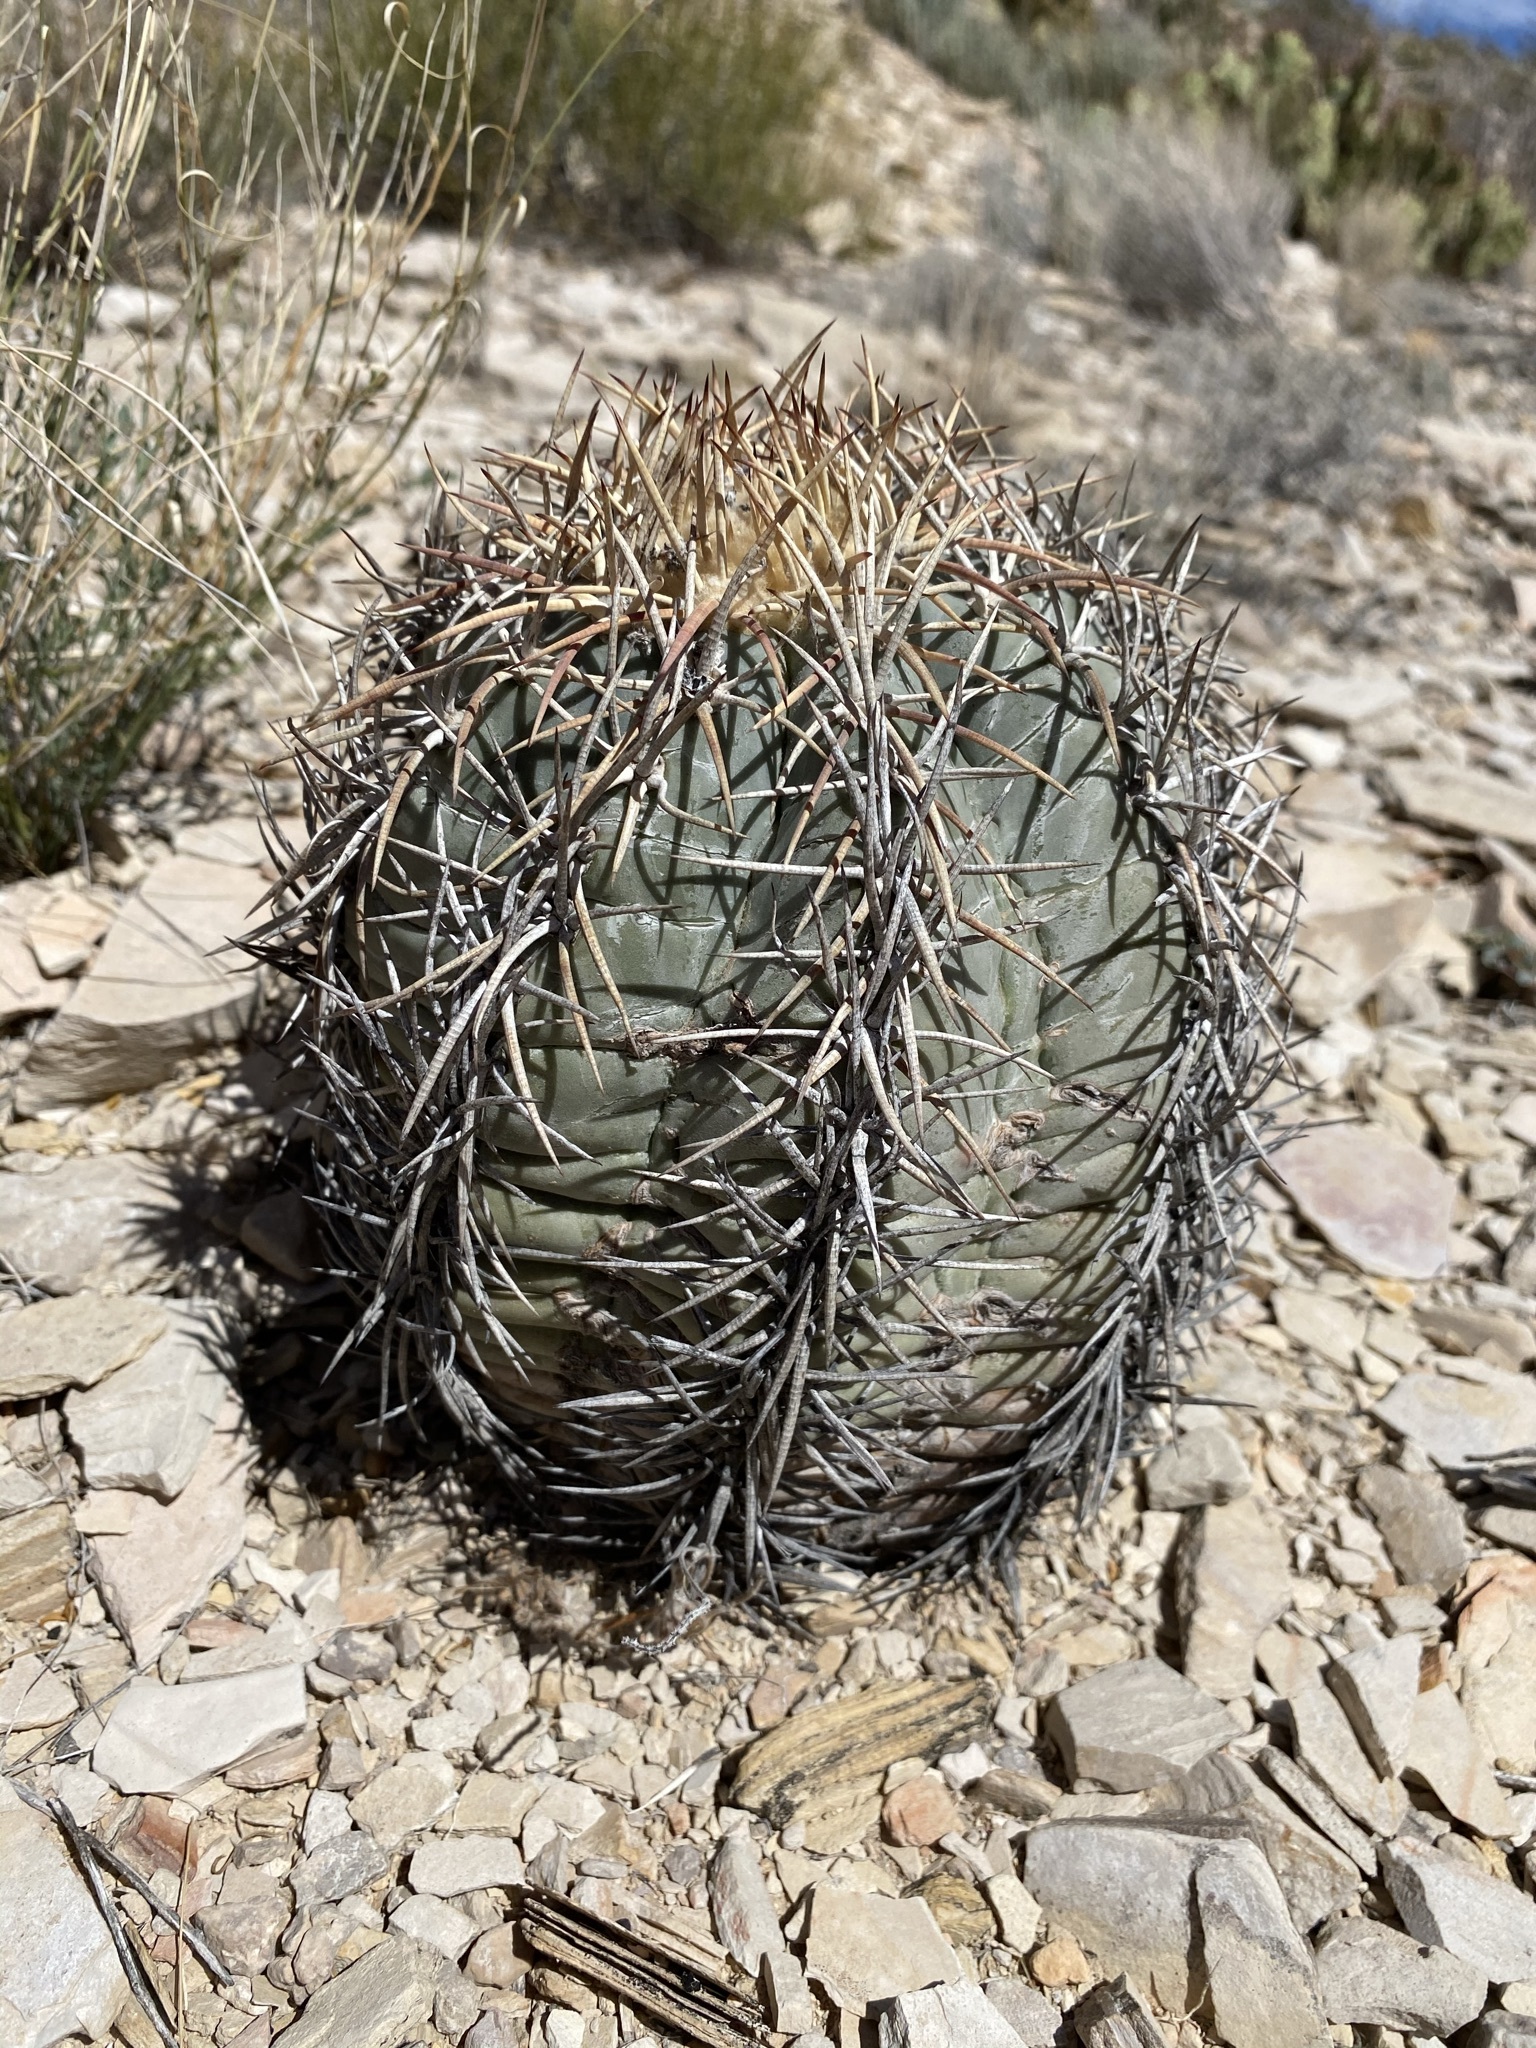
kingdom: Plantae
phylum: Tracheophyta
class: Magnoliopsida
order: Caryophyllales
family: Cactaceae
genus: Echinocactus
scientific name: Echinocactus horizonthalonius
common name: Devilshead
